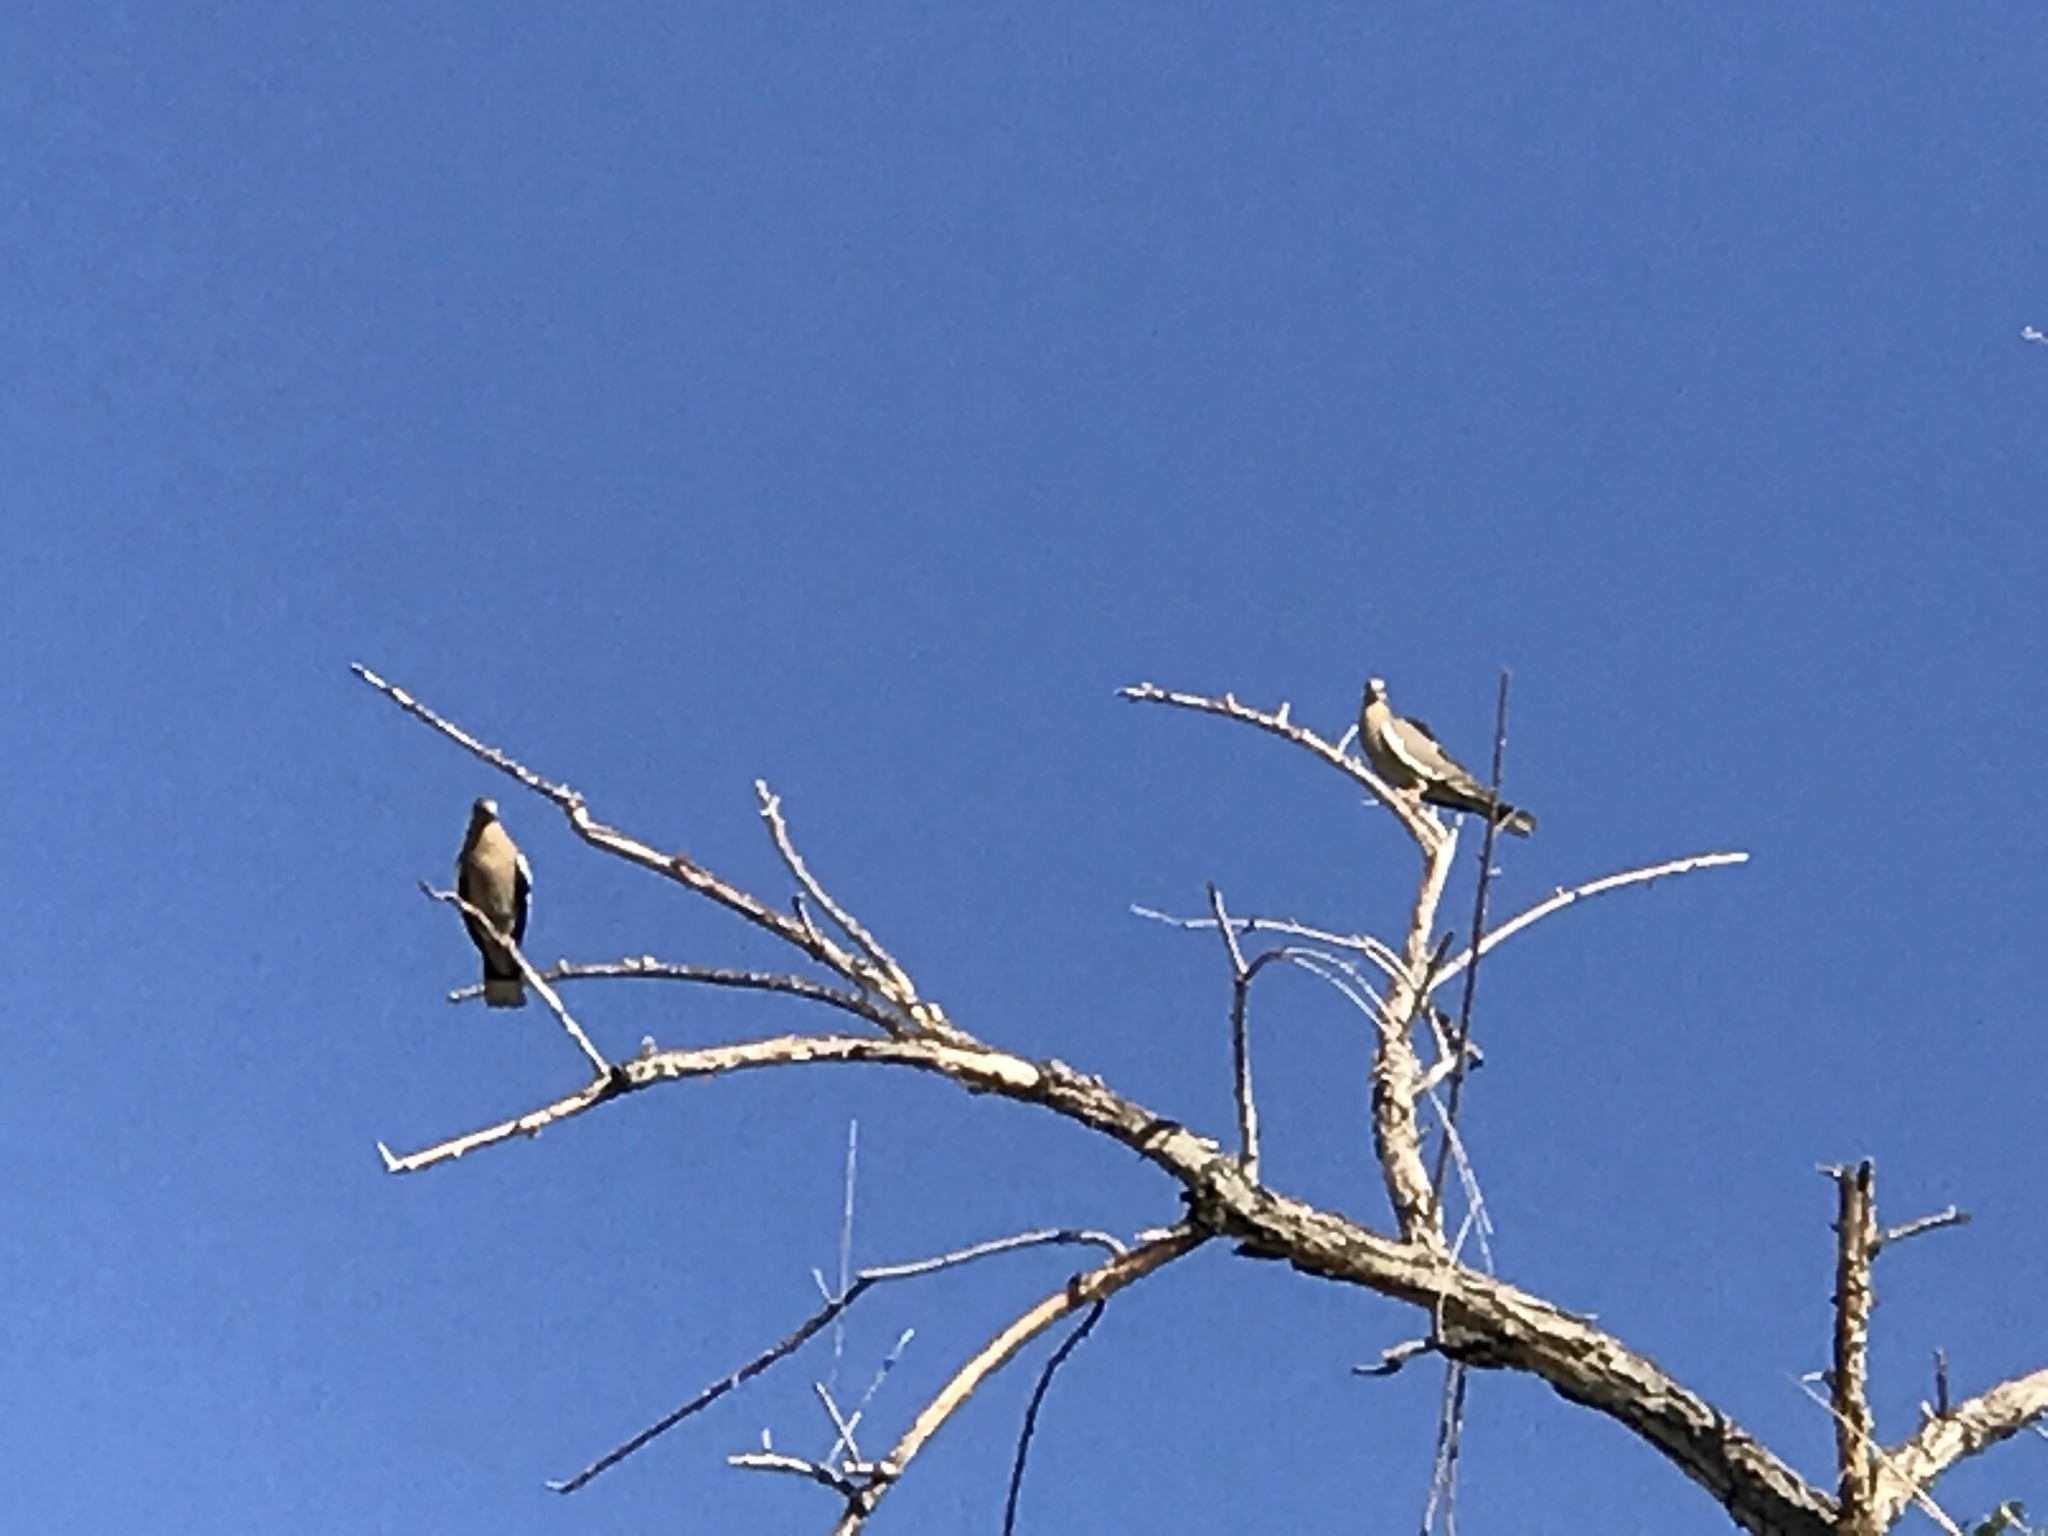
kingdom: Animalia
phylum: Chordata
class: Aves
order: Columbiformes
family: Columbidae
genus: Zenaida
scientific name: Zenaida asiatica
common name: White-winged dove
